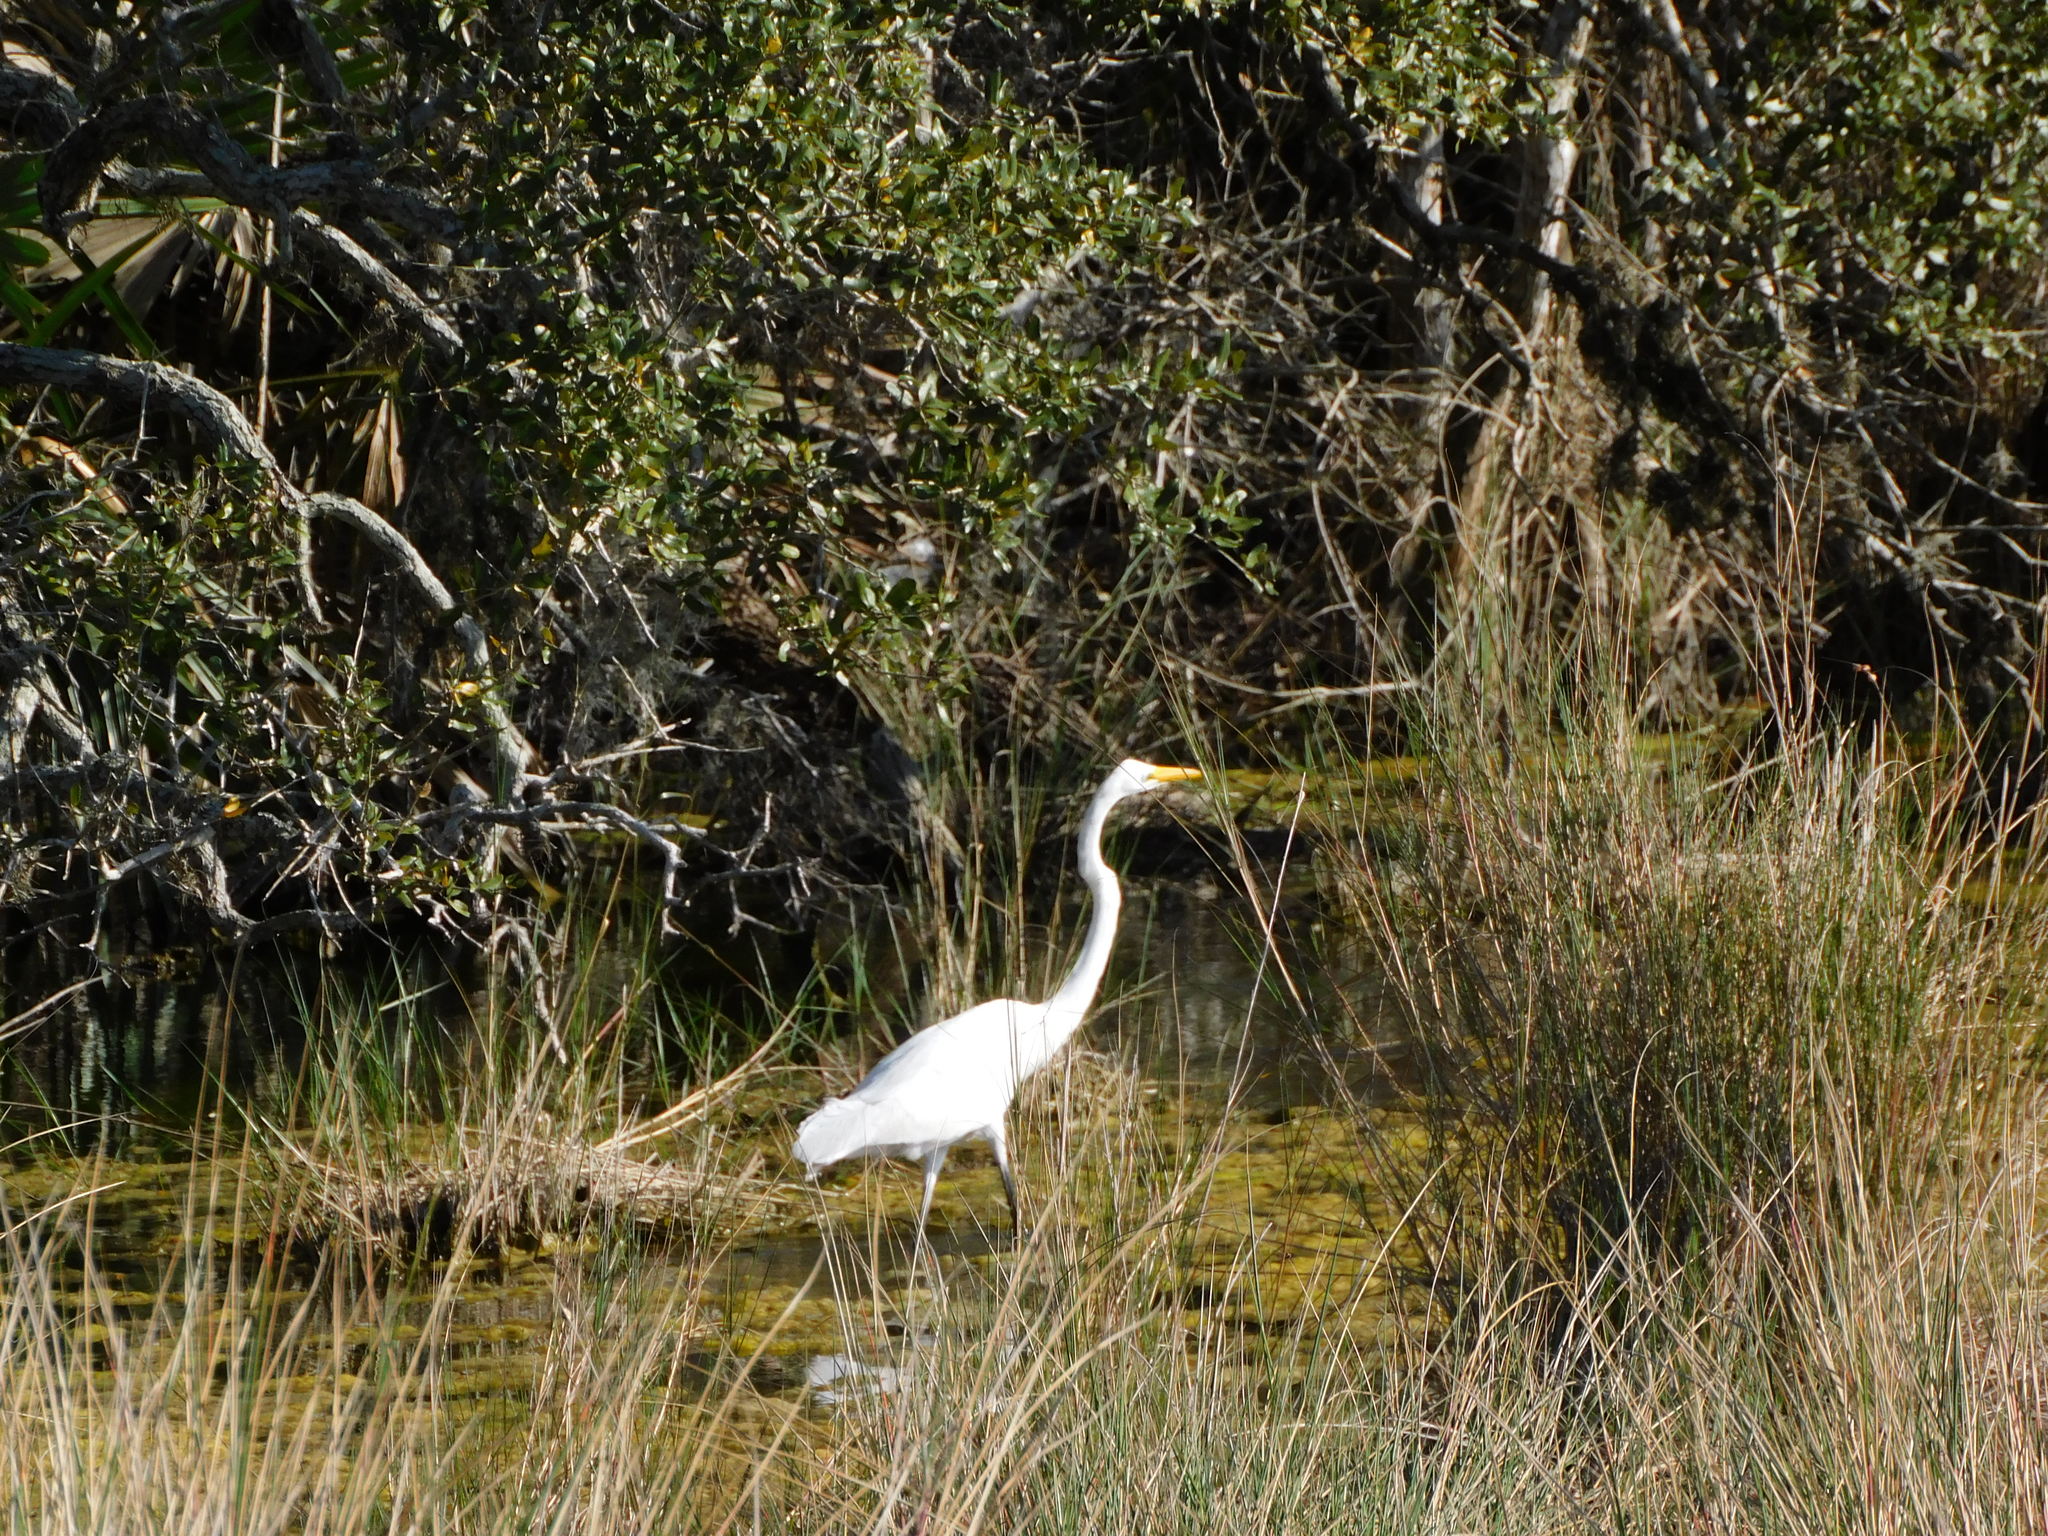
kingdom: Animalia
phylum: Chordata
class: Aves
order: Pelecaniformes
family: Ardeidae
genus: Ardea
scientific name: Ardea alba
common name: Great egret
